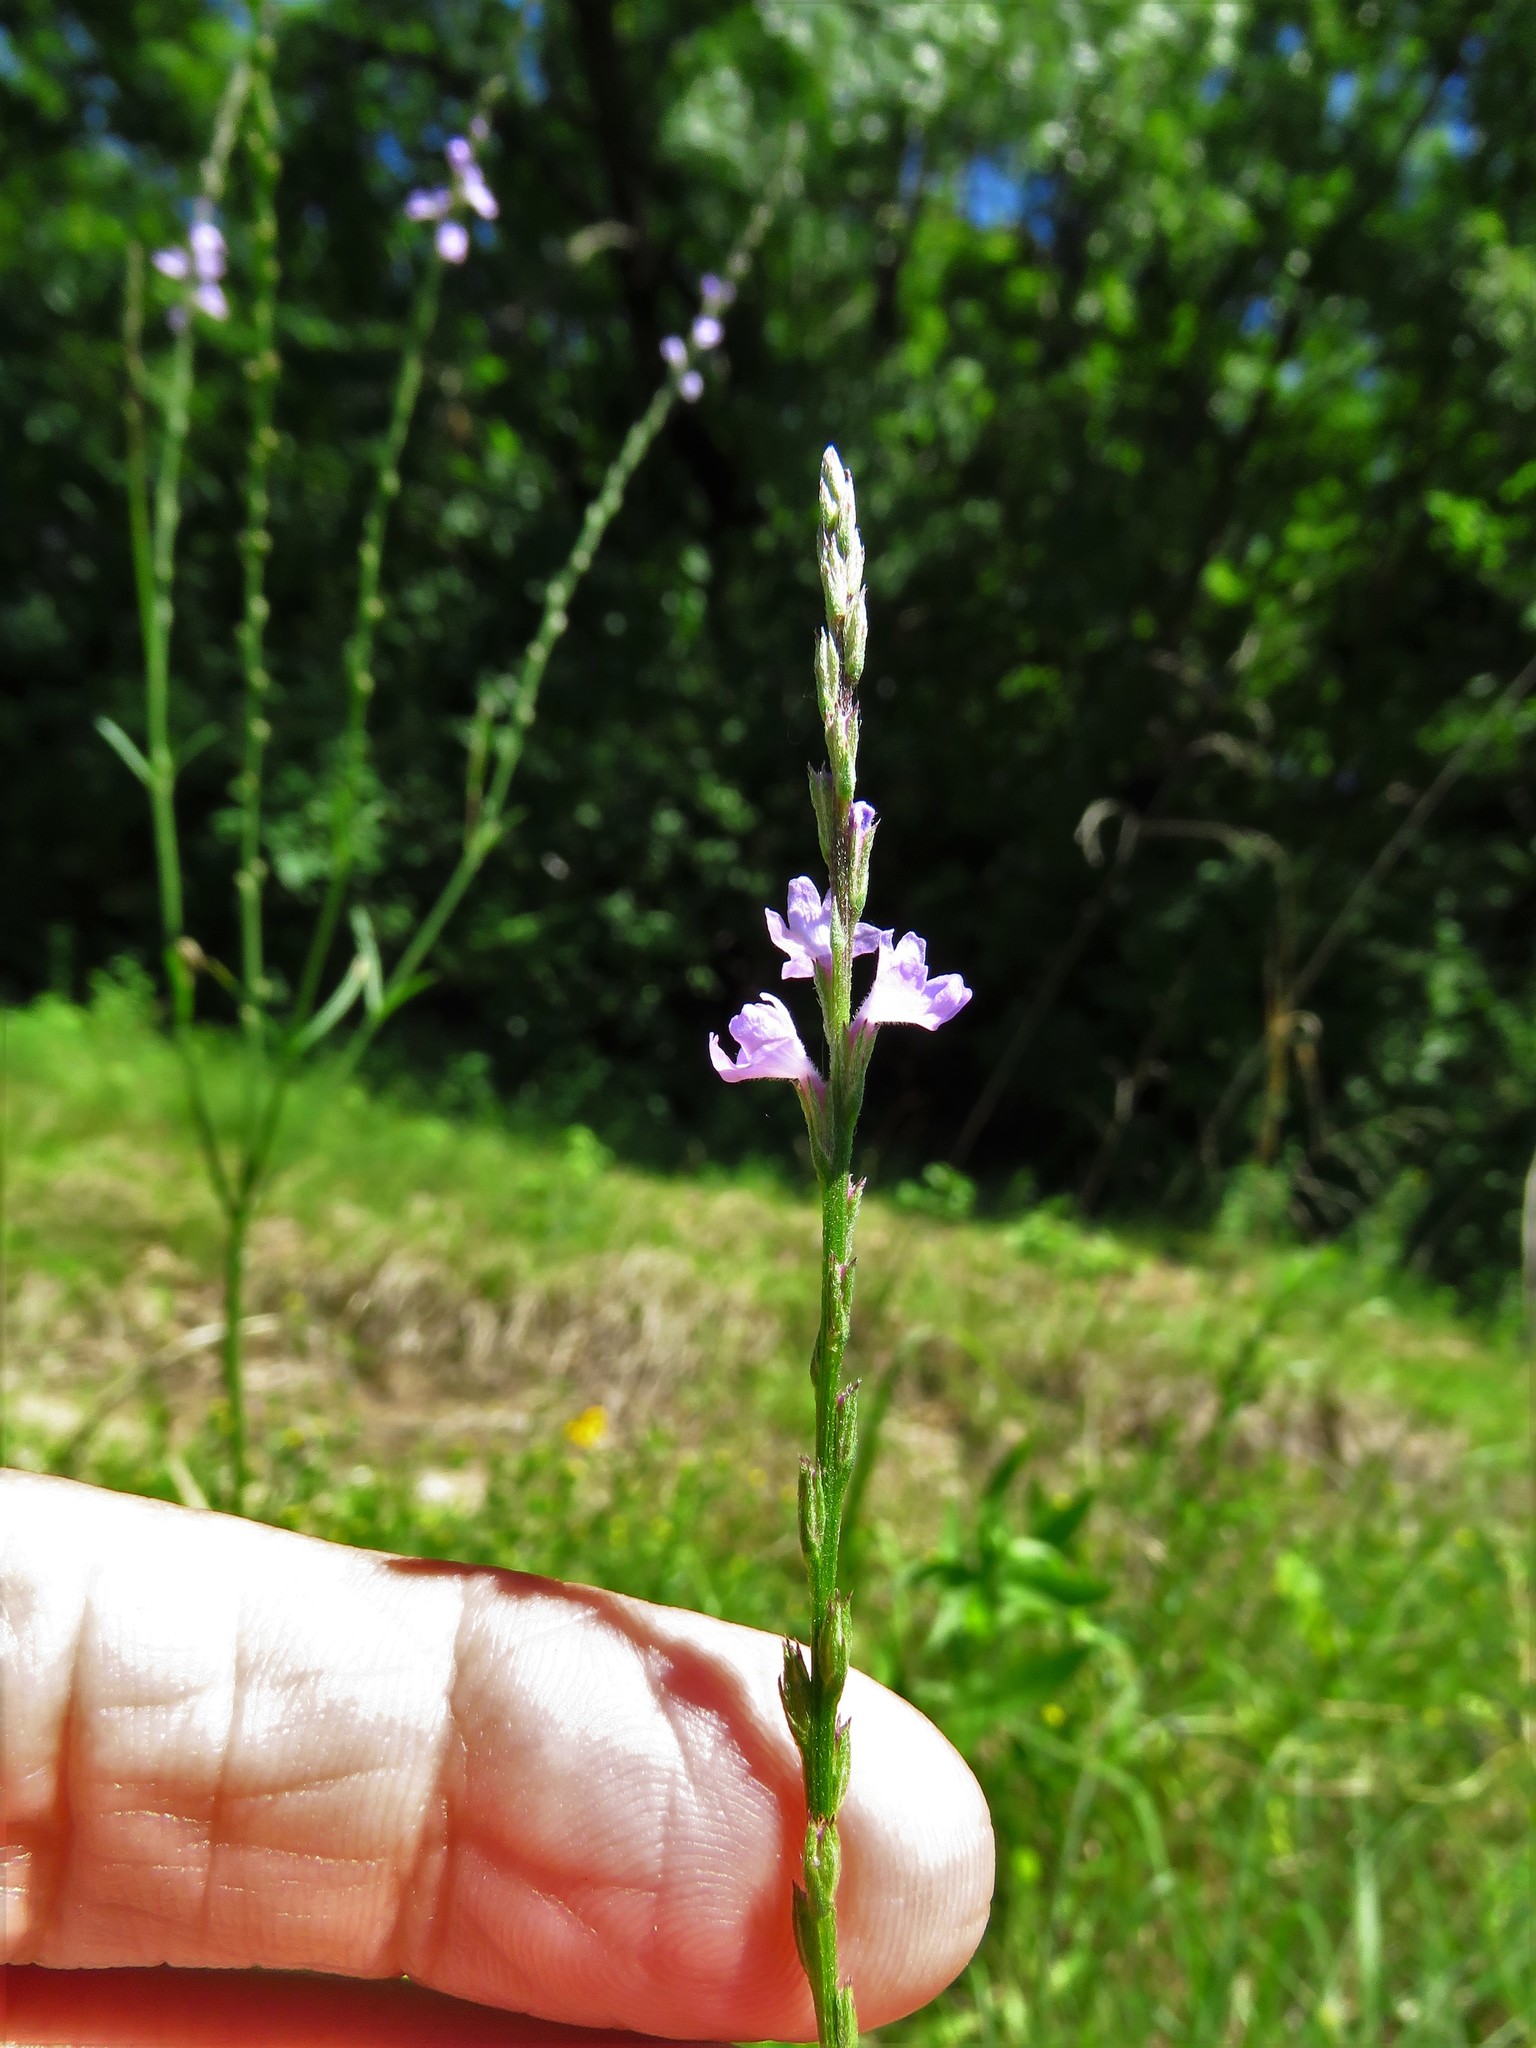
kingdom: Plantae
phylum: Tracheophyta
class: Magnoliopsida
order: Lamiales
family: Verbenaceae
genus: Verbena
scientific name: Verbena halei
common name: Texas vervain
